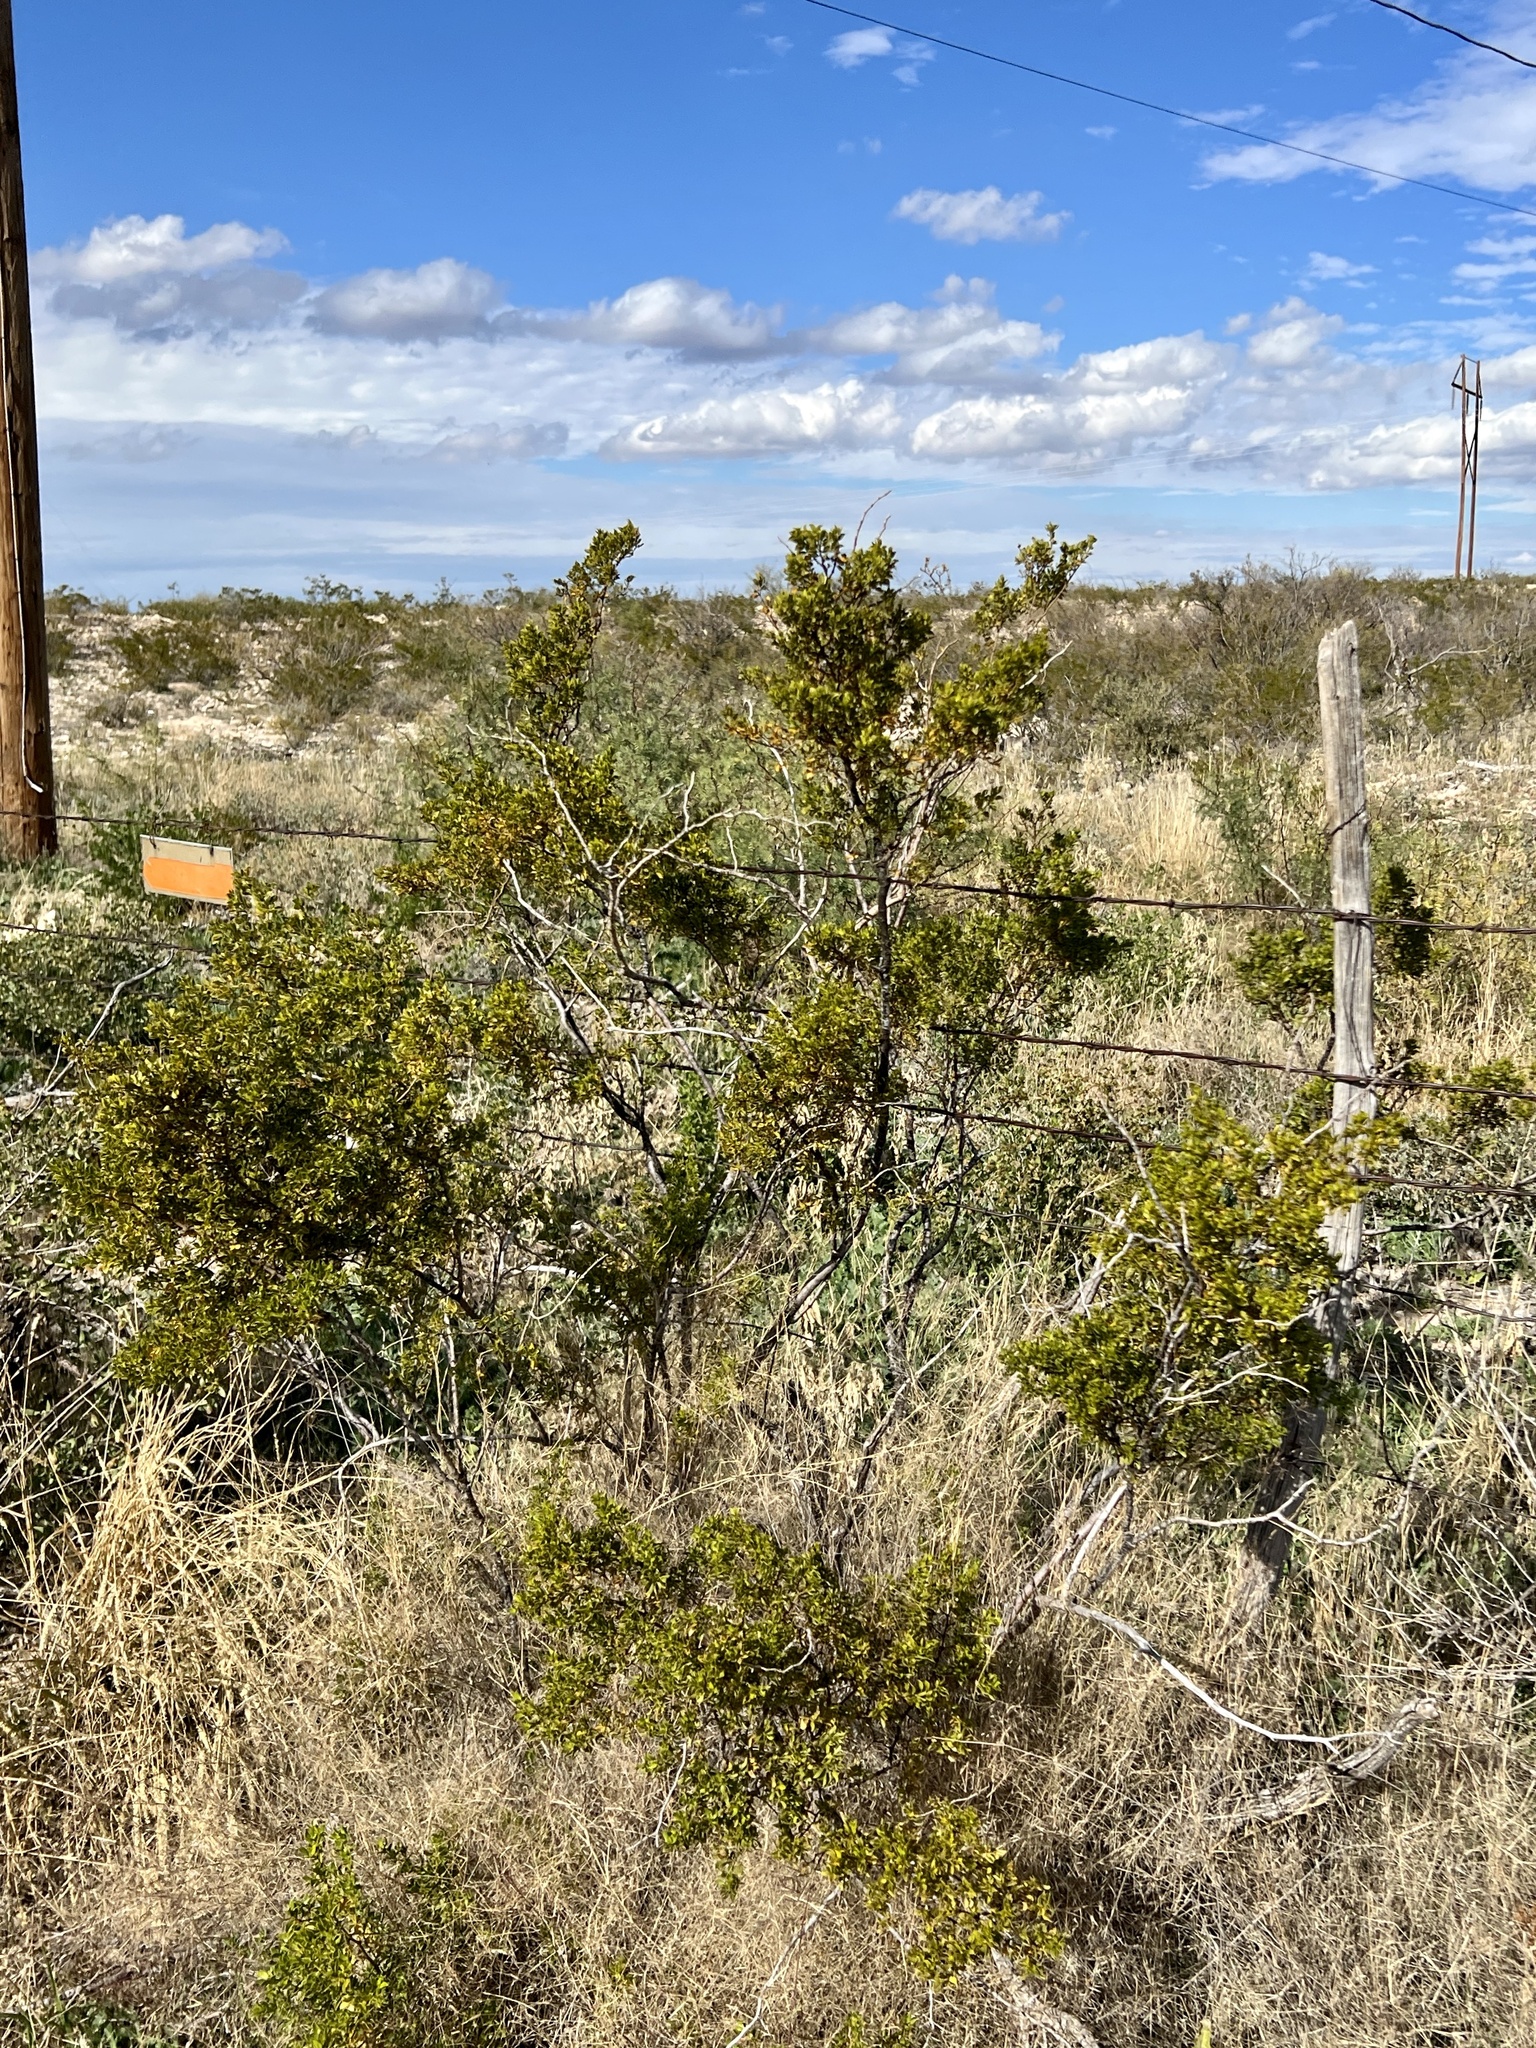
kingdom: Plantae
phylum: Tracheophyta
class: Magnoliopsida
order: Zygophyllales
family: Zygophyllaceae
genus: Larrea
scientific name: Larrea tridentata
